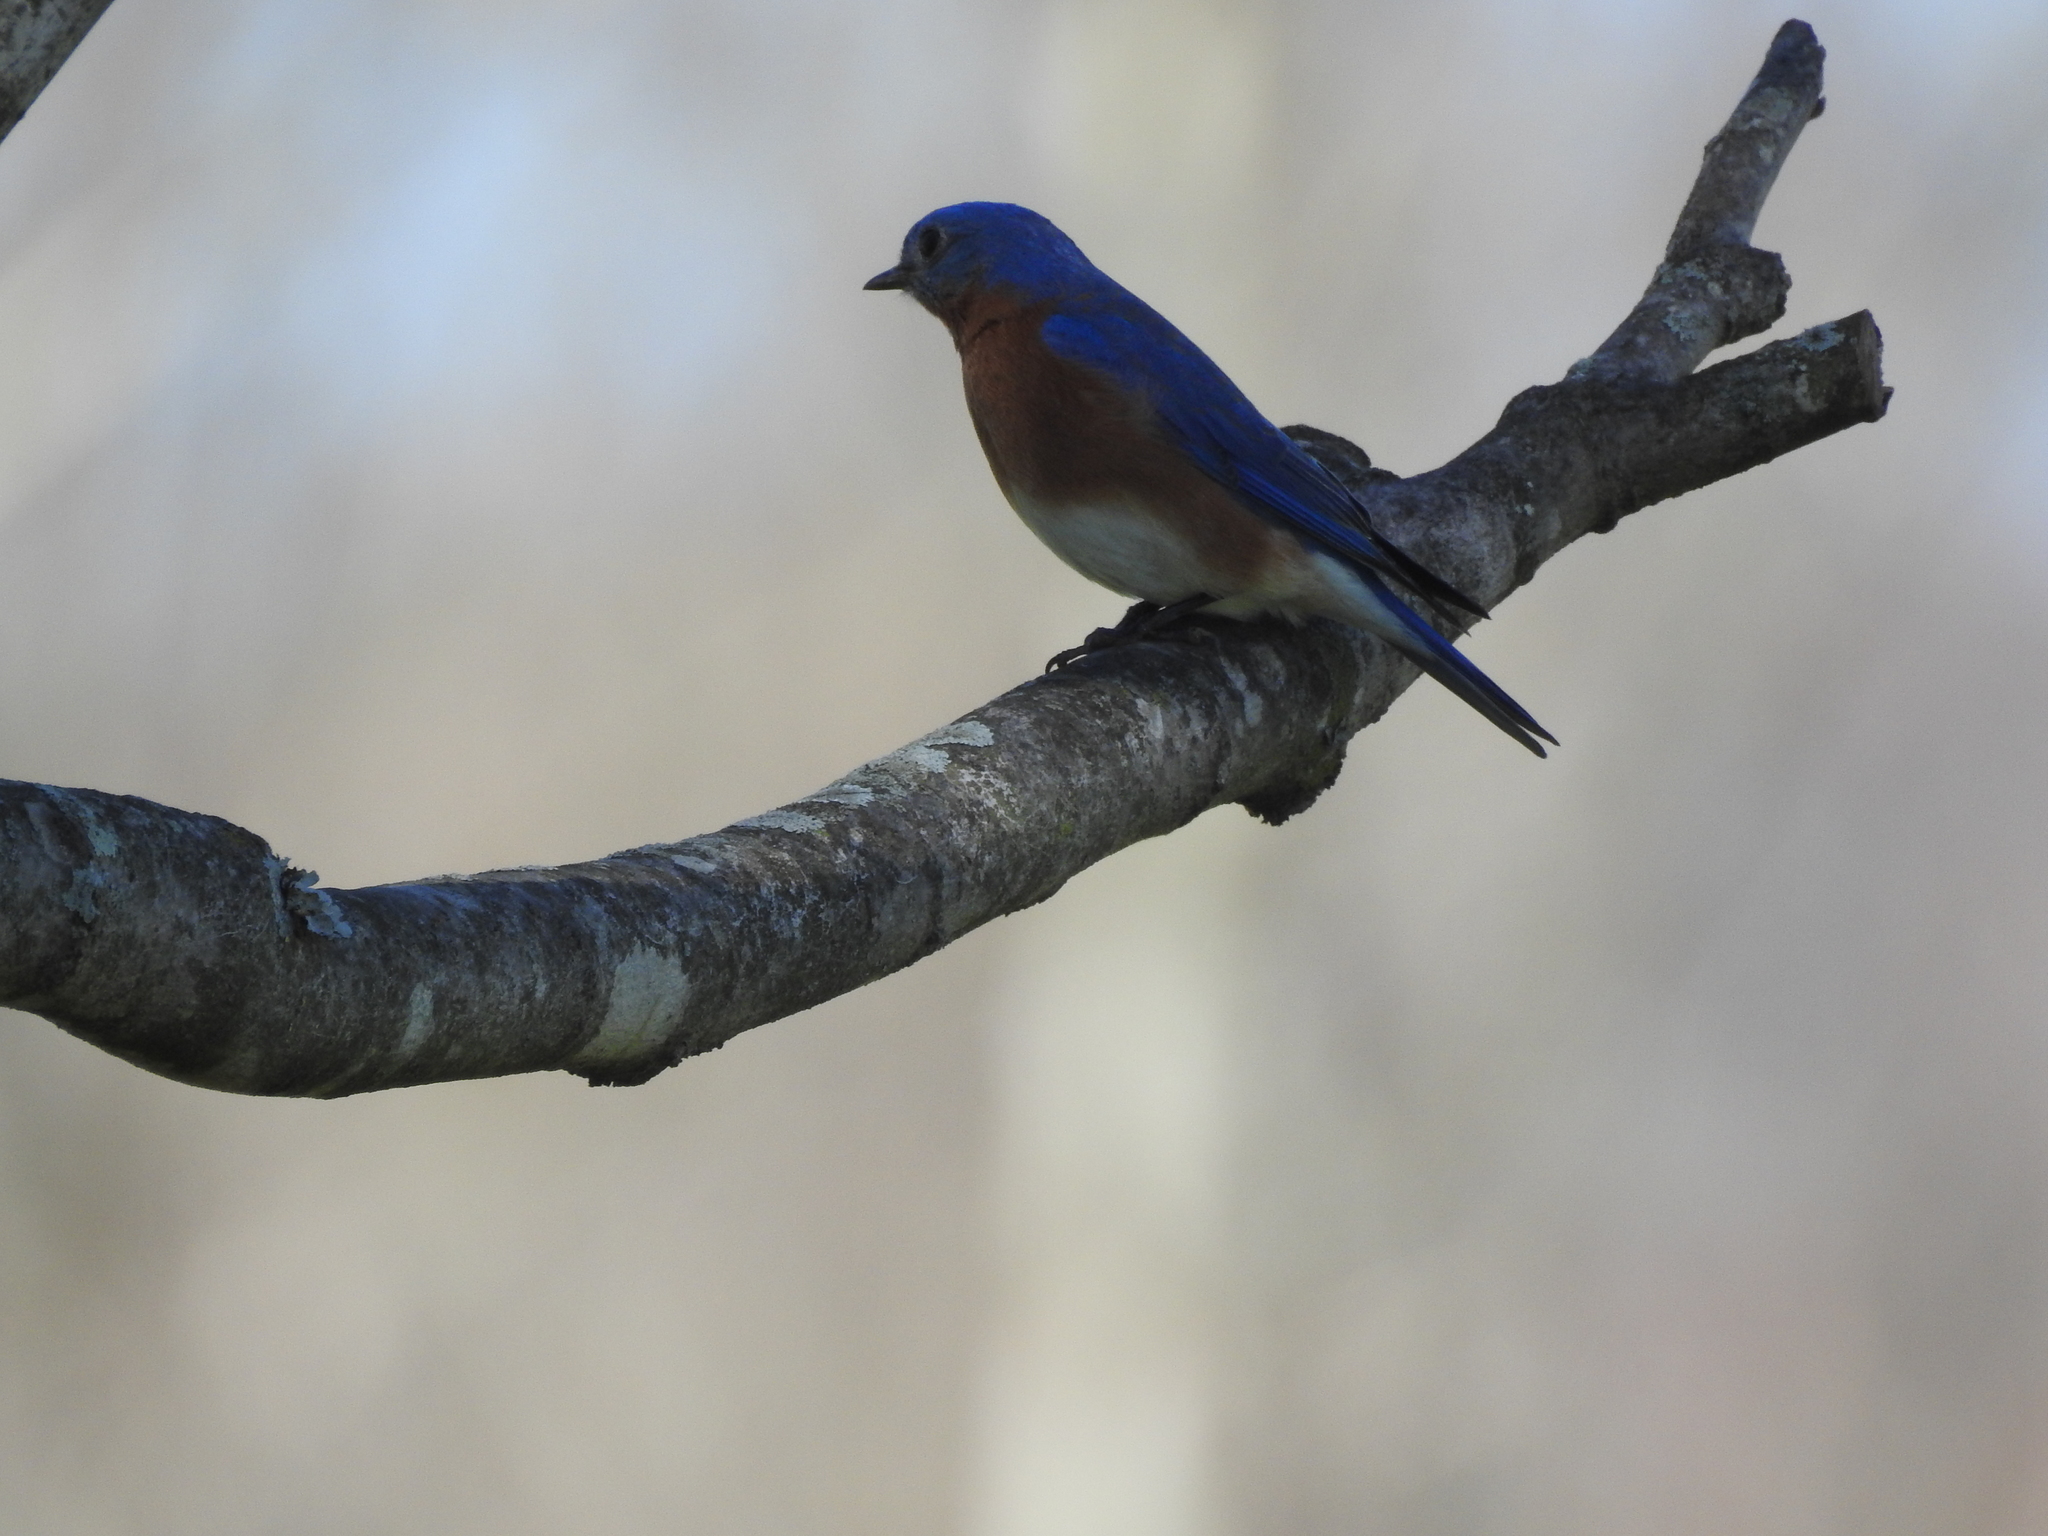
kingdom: Animalia
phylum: Chordata
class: Aves
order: Passeriformes
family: Turdidae
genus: Sialia
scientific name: Sialia sialis
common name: Eastern bluebird
